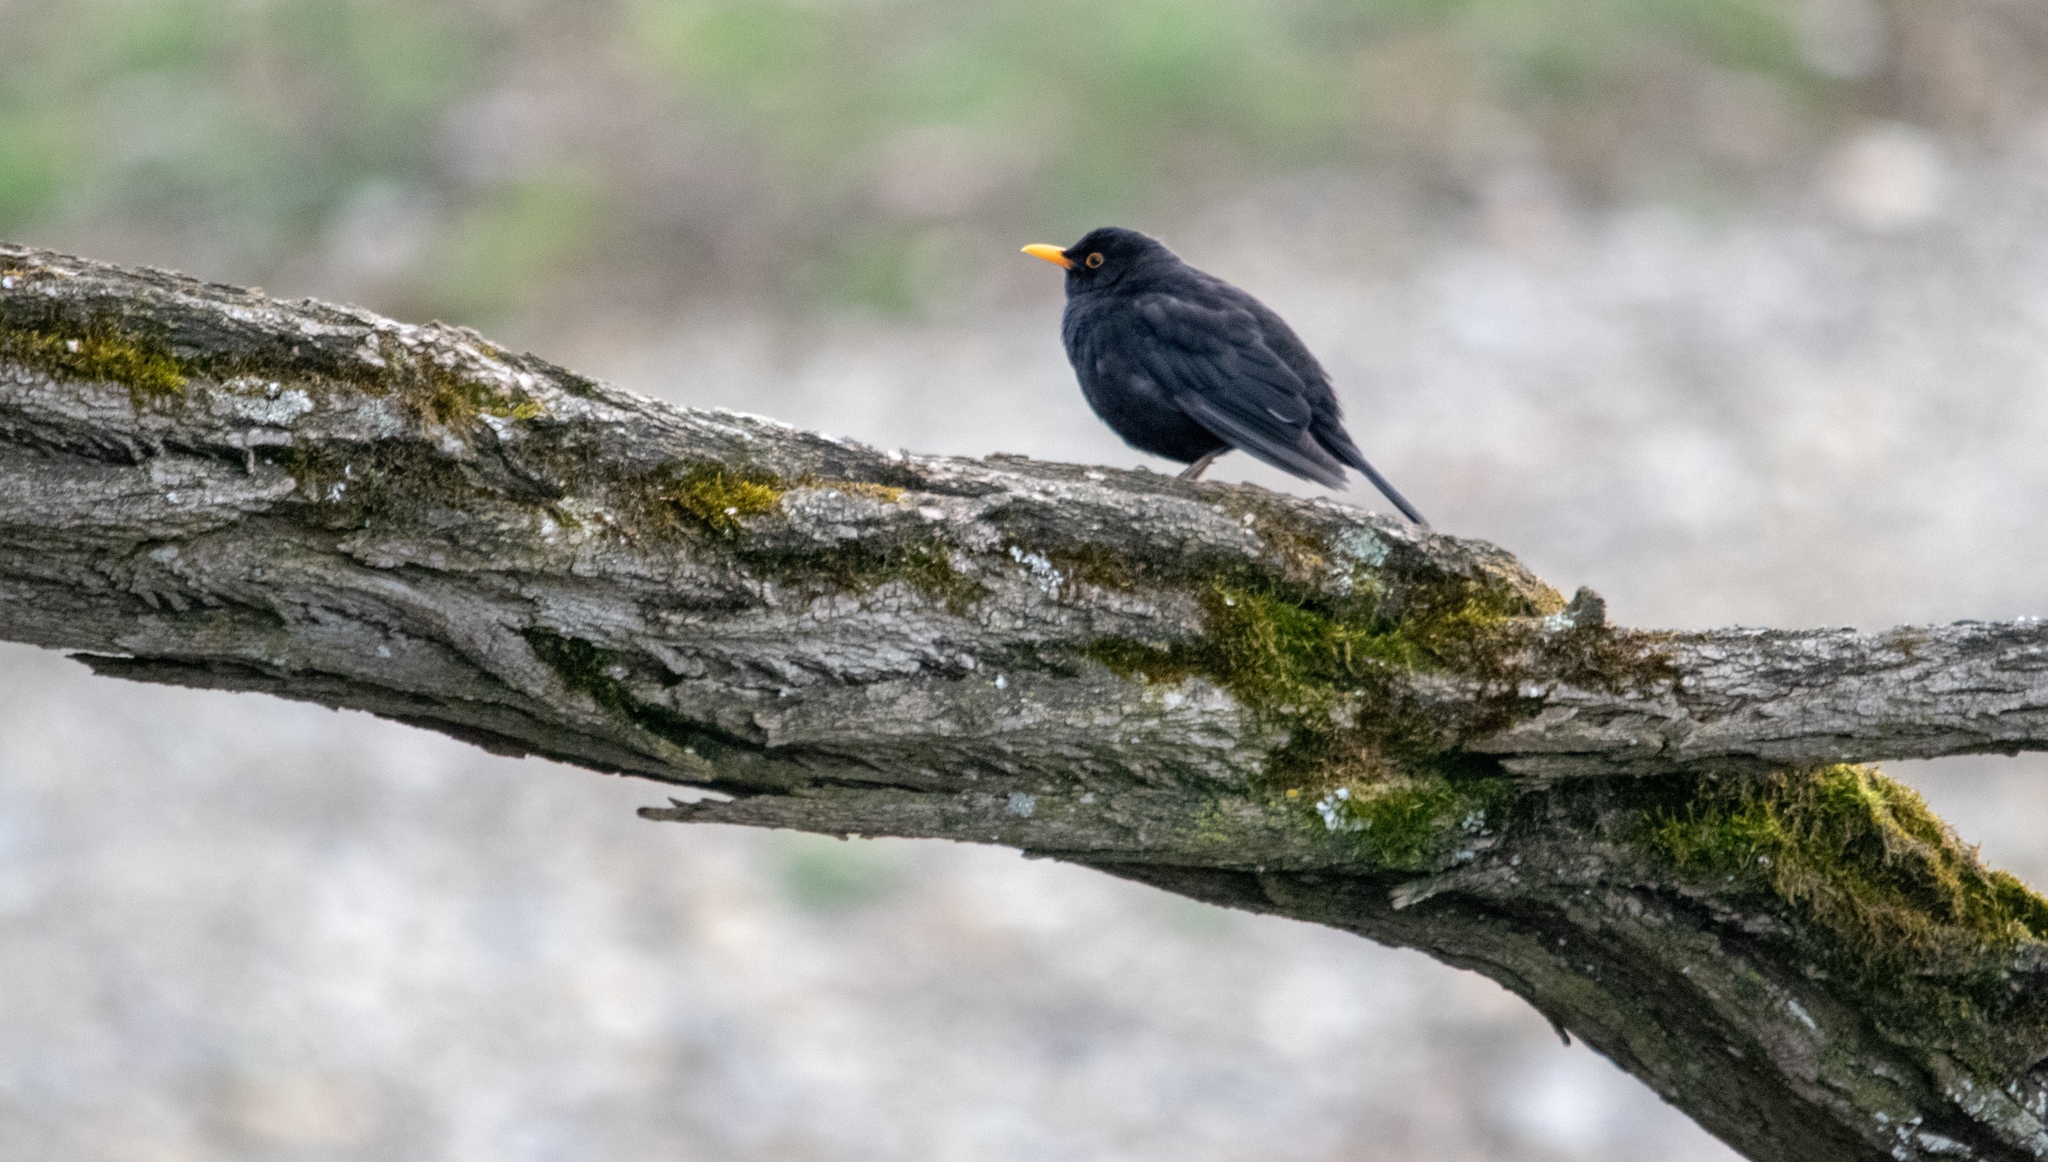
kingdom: Animalia
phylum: Chordata
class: Aves
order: Passeriformes
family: Turdidae
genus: Turdus
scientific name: Turdus merula
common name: Common blackbird
